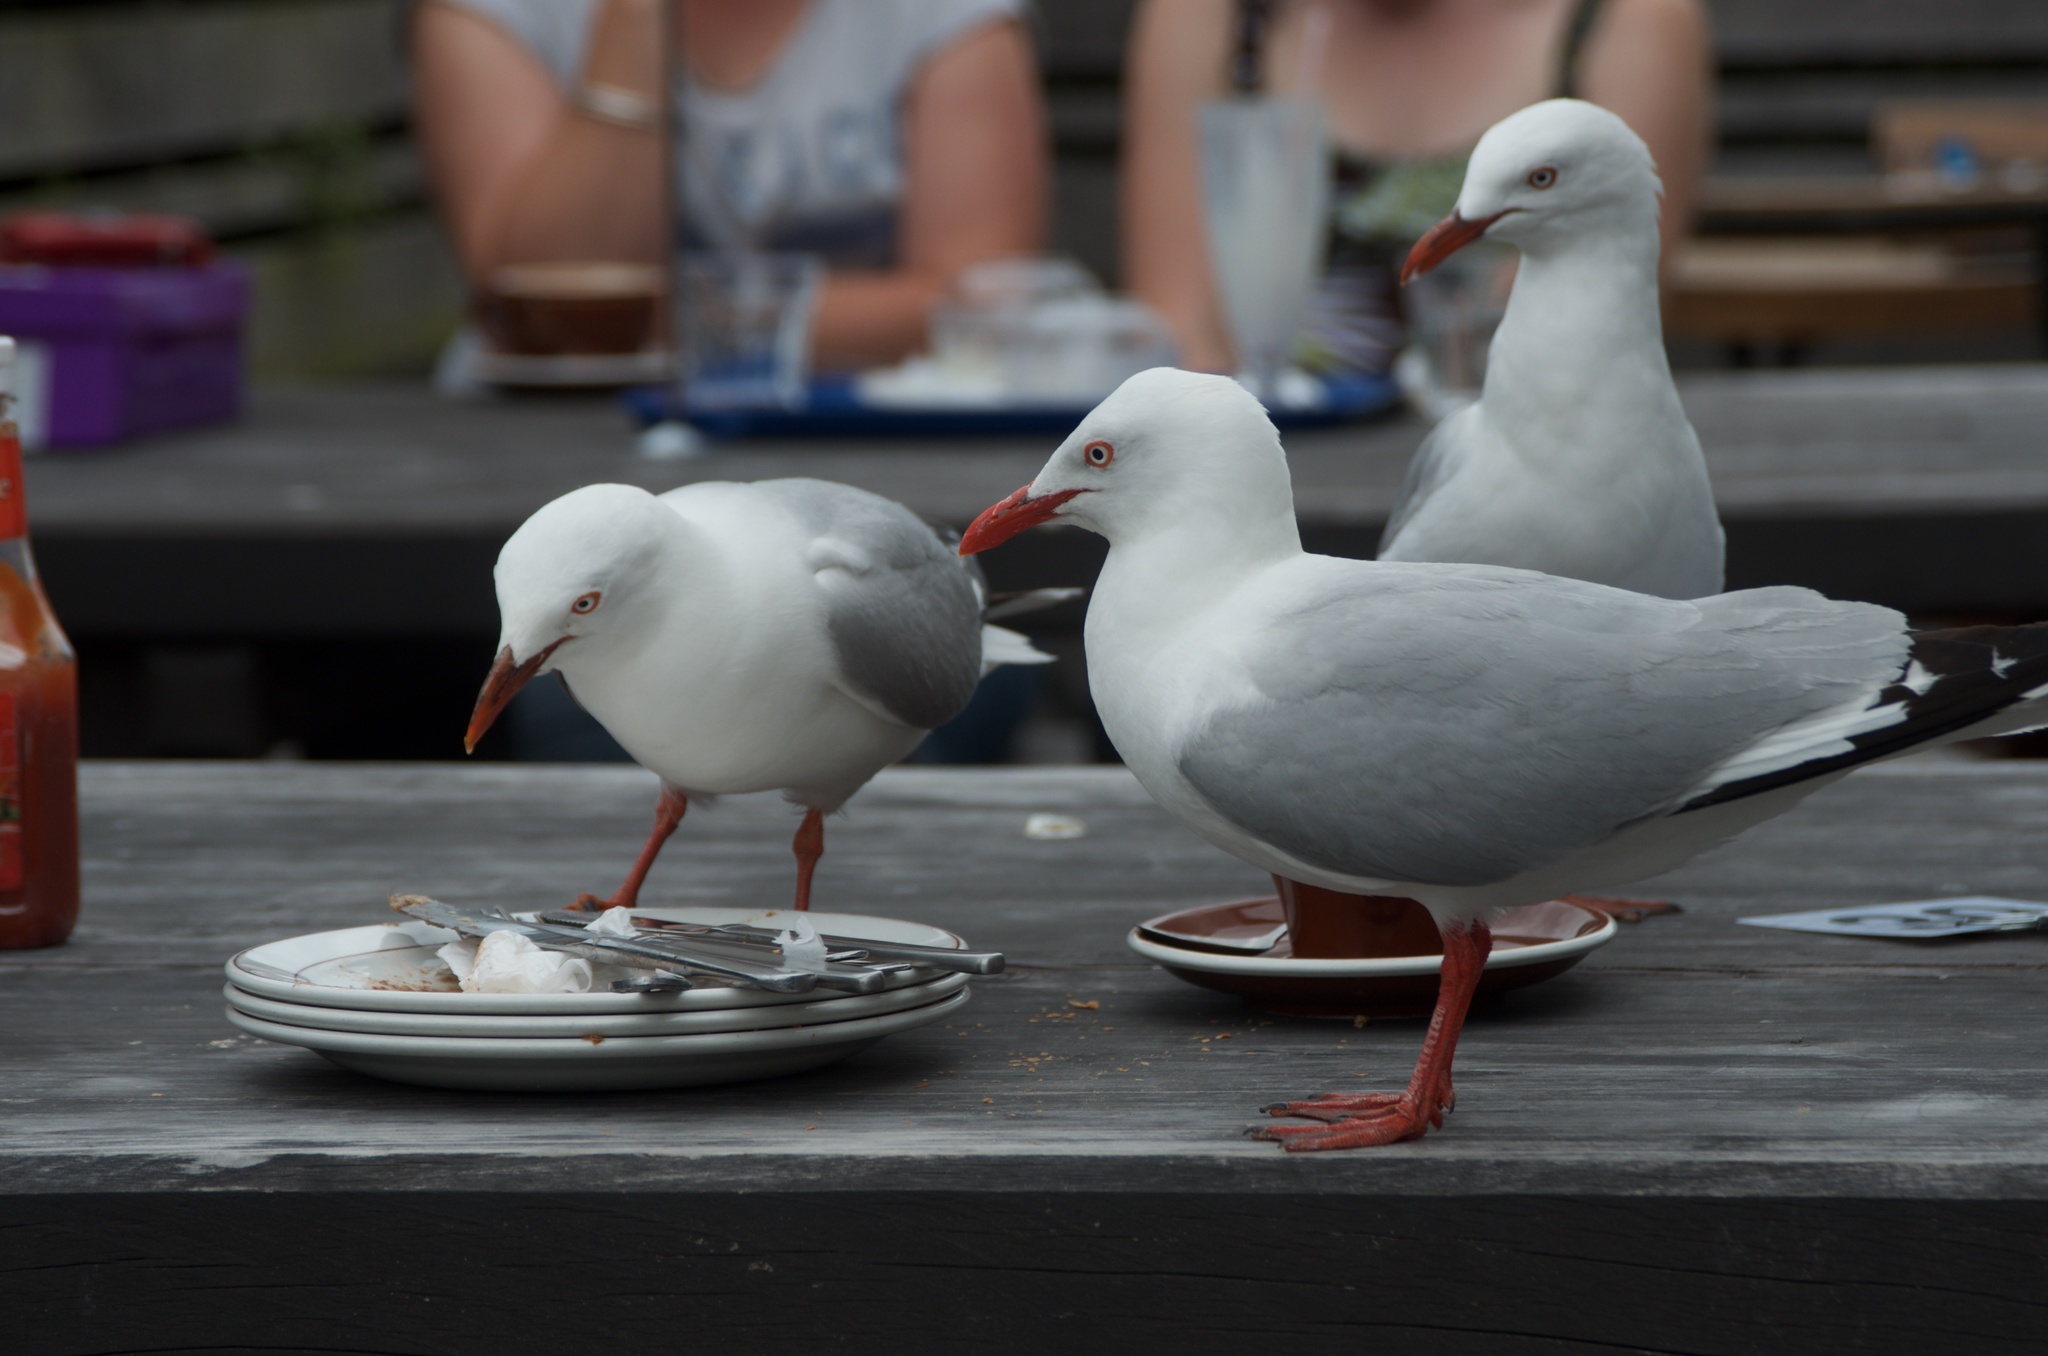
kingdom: Animalia
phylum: Chordata
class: Aves
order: Charadriiformes
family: Laridae
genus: Chroicocephalus
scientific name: Chroicocephalus novaehollandiae
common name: Silver gull
